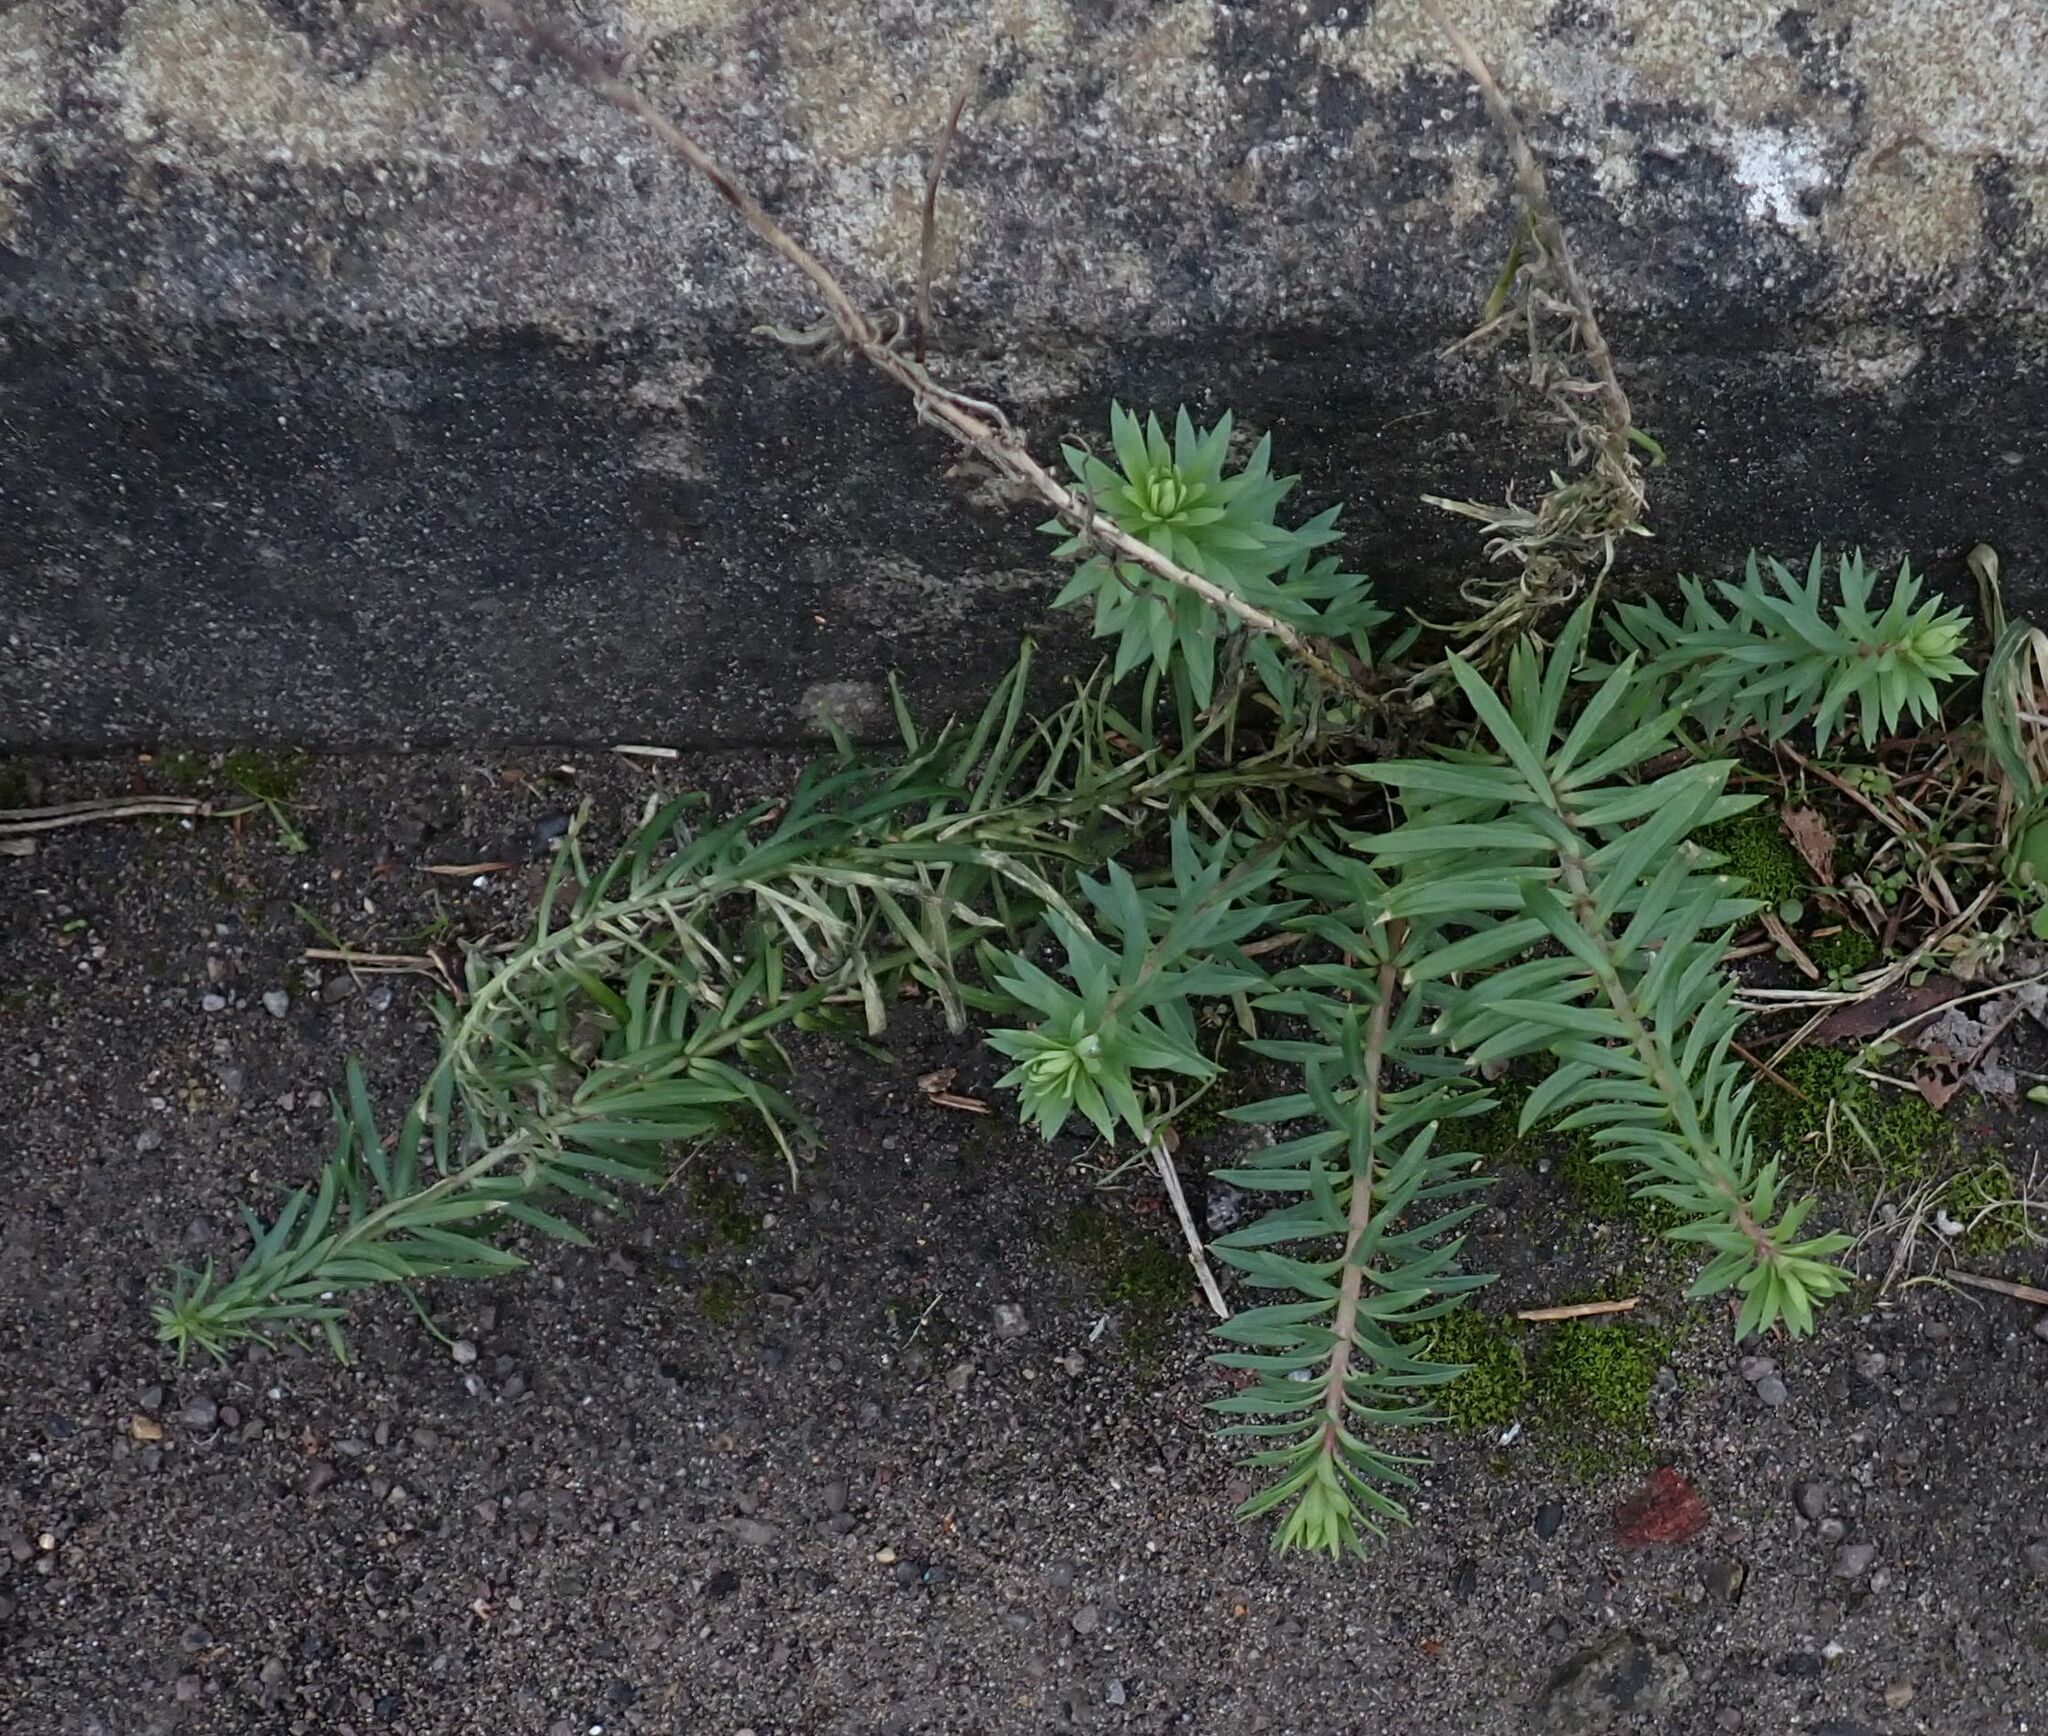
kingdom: Plantae
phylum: Tracheophyta
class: Magnoliopsida
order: Lamiales
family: Plantaginaceae
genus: Linaria
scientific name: Linaria purpurea
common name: Purple toadflax
